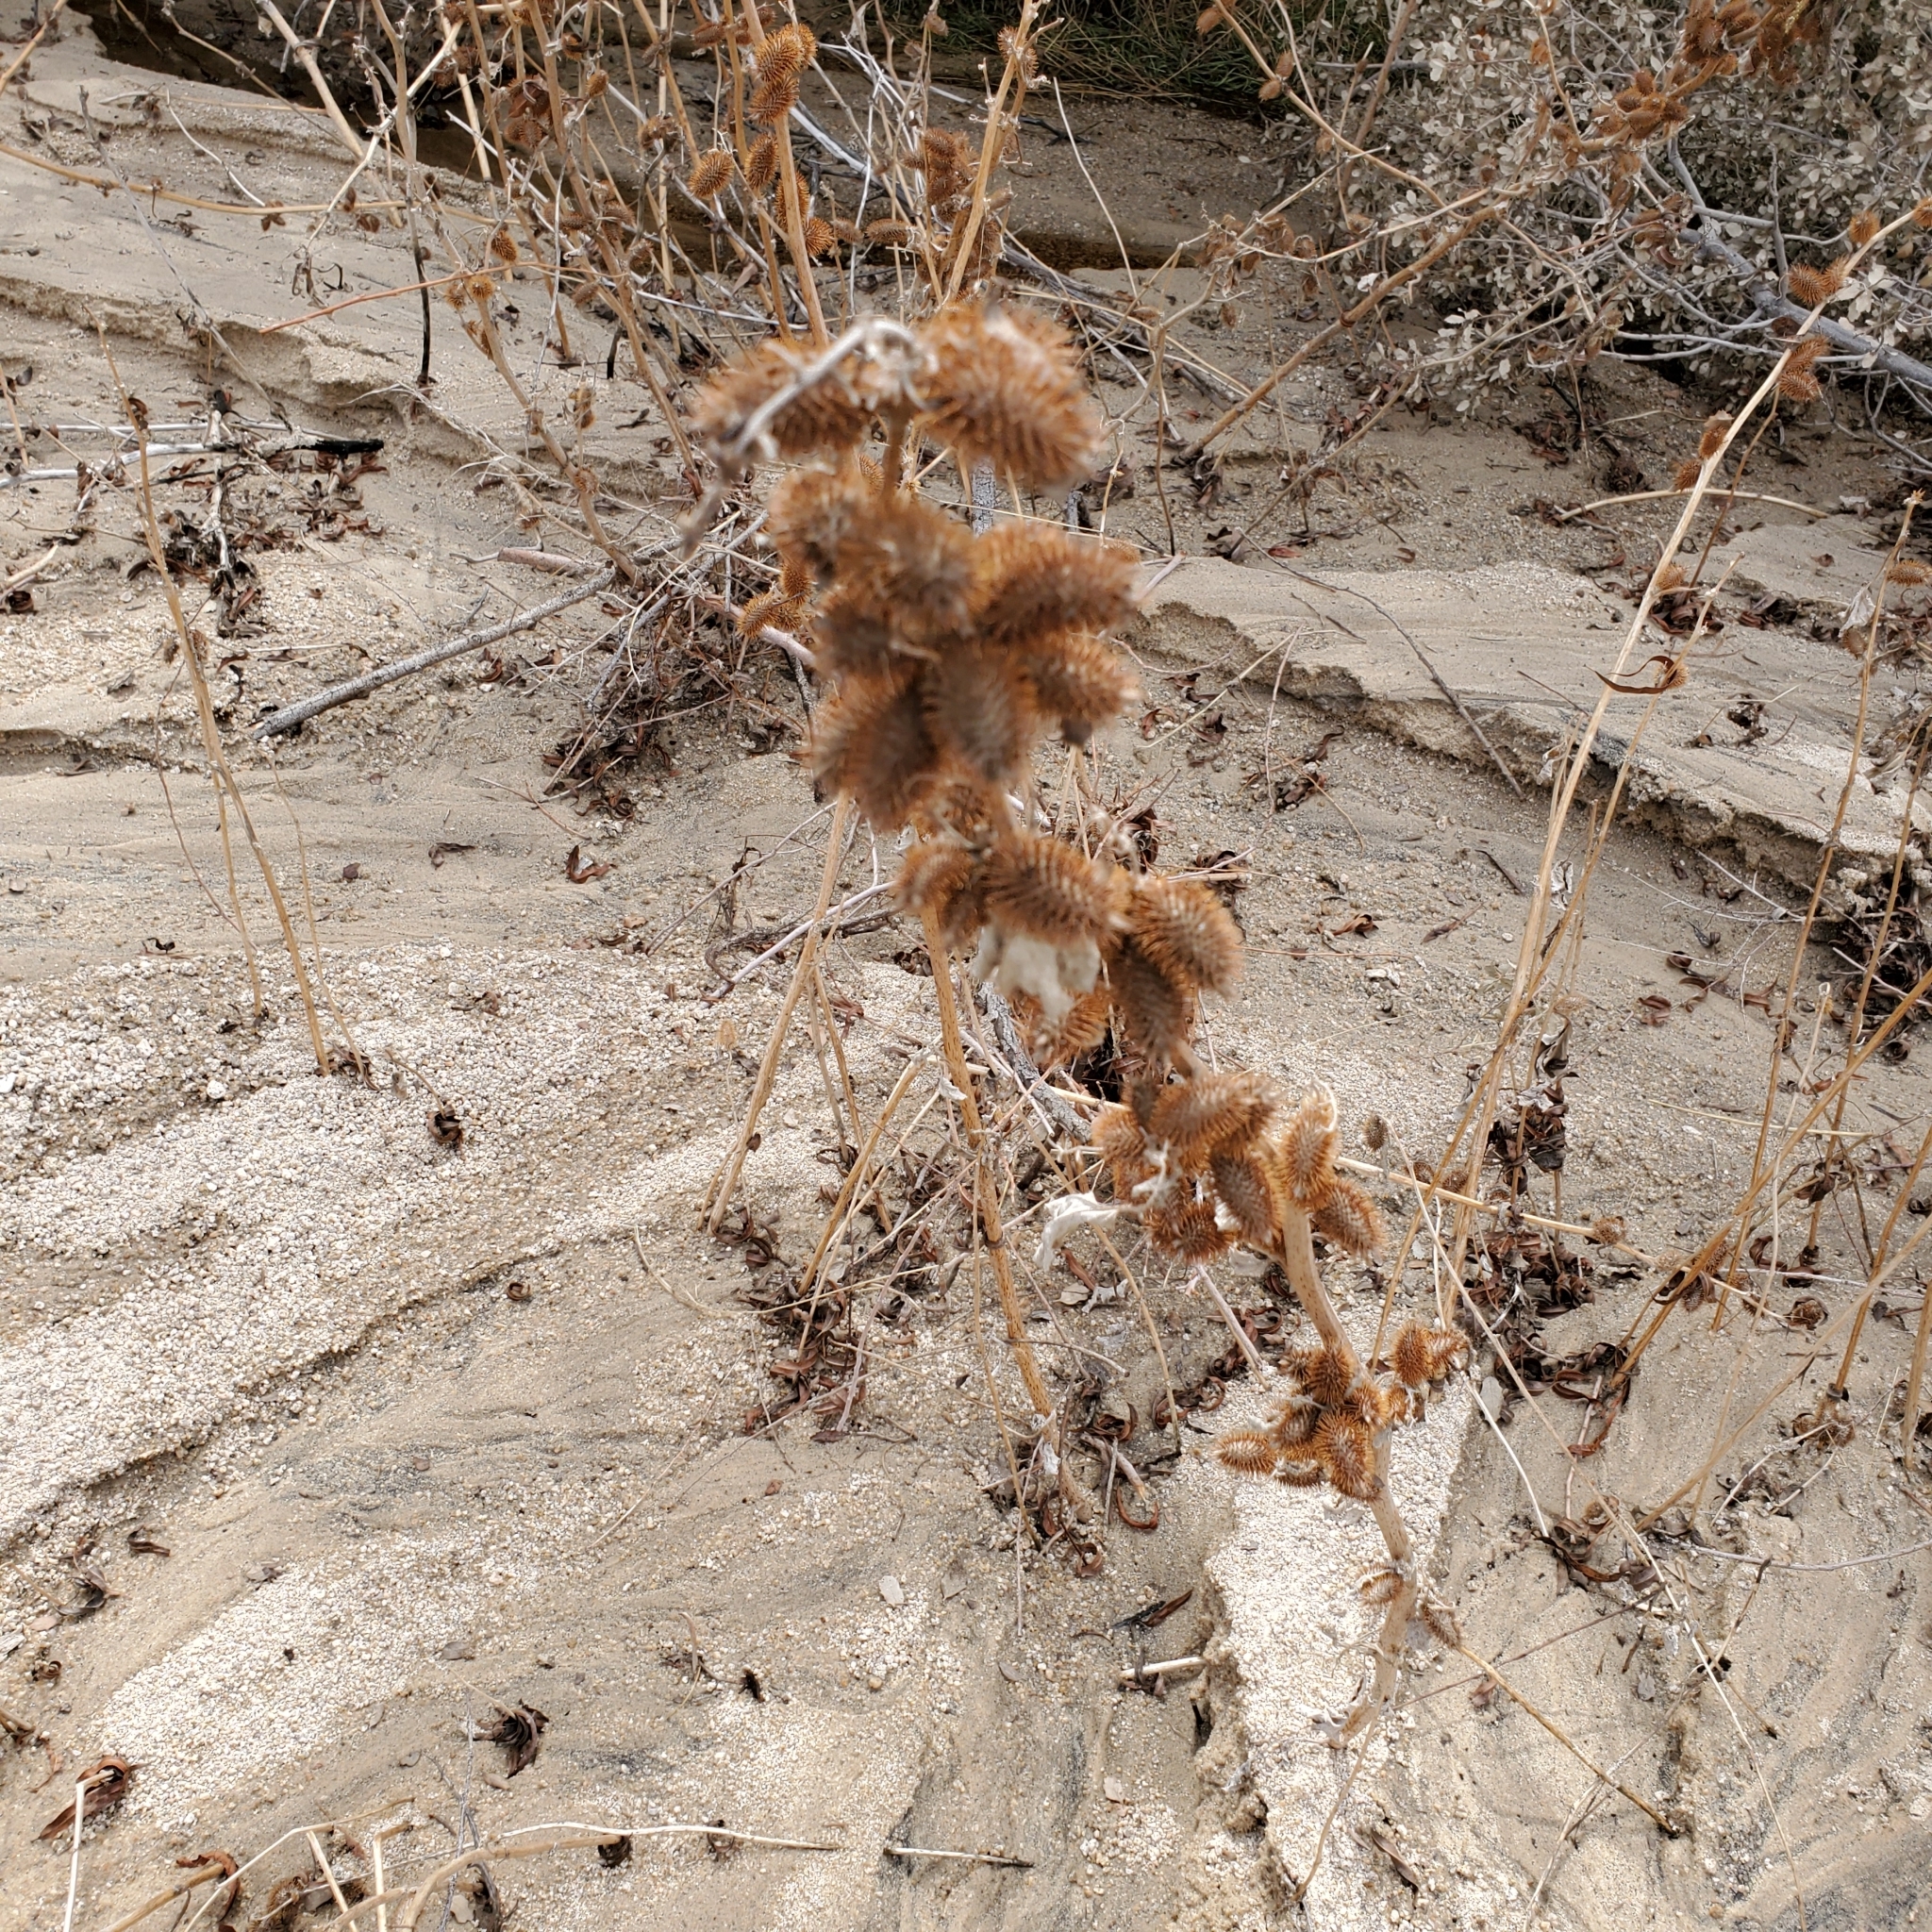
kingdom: Plantae
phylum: Tracheophyta
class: Magnoliopsida
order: Asterales
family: Asteraceae
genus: Xanthium
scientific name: Xanthium strumarium
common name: Rough cocklebur
